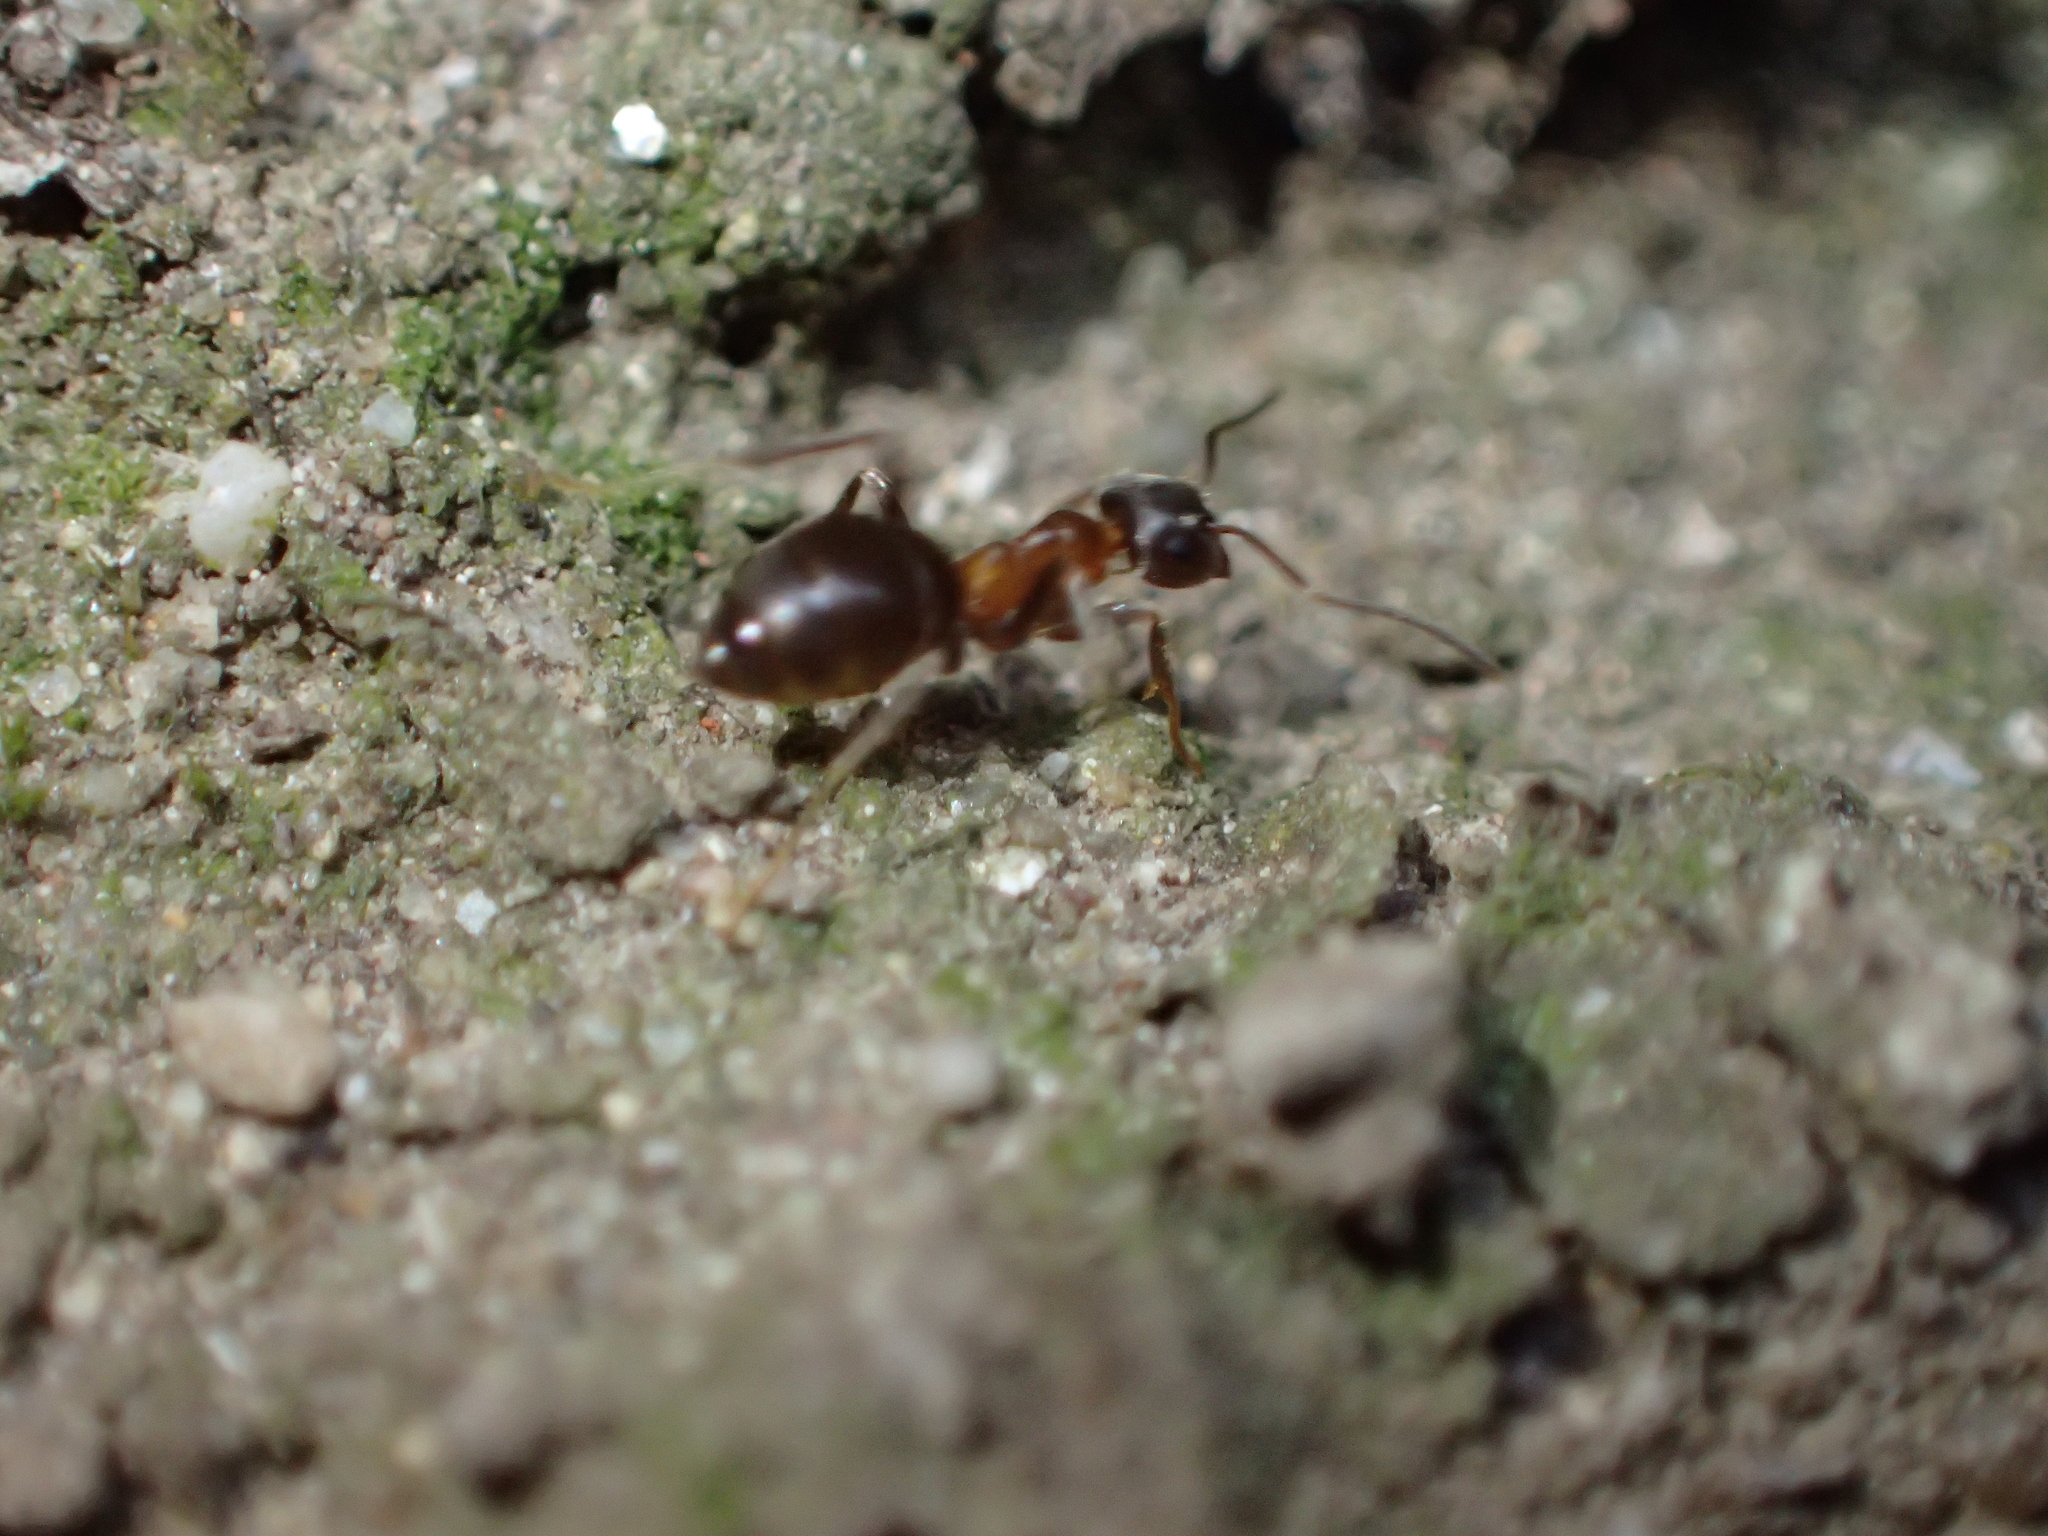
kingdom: Animalia
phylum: Arthropoda
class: Insecta
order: Hymenoptera
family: Formicidae
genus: Lasius
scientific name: Lasius emarginatus
